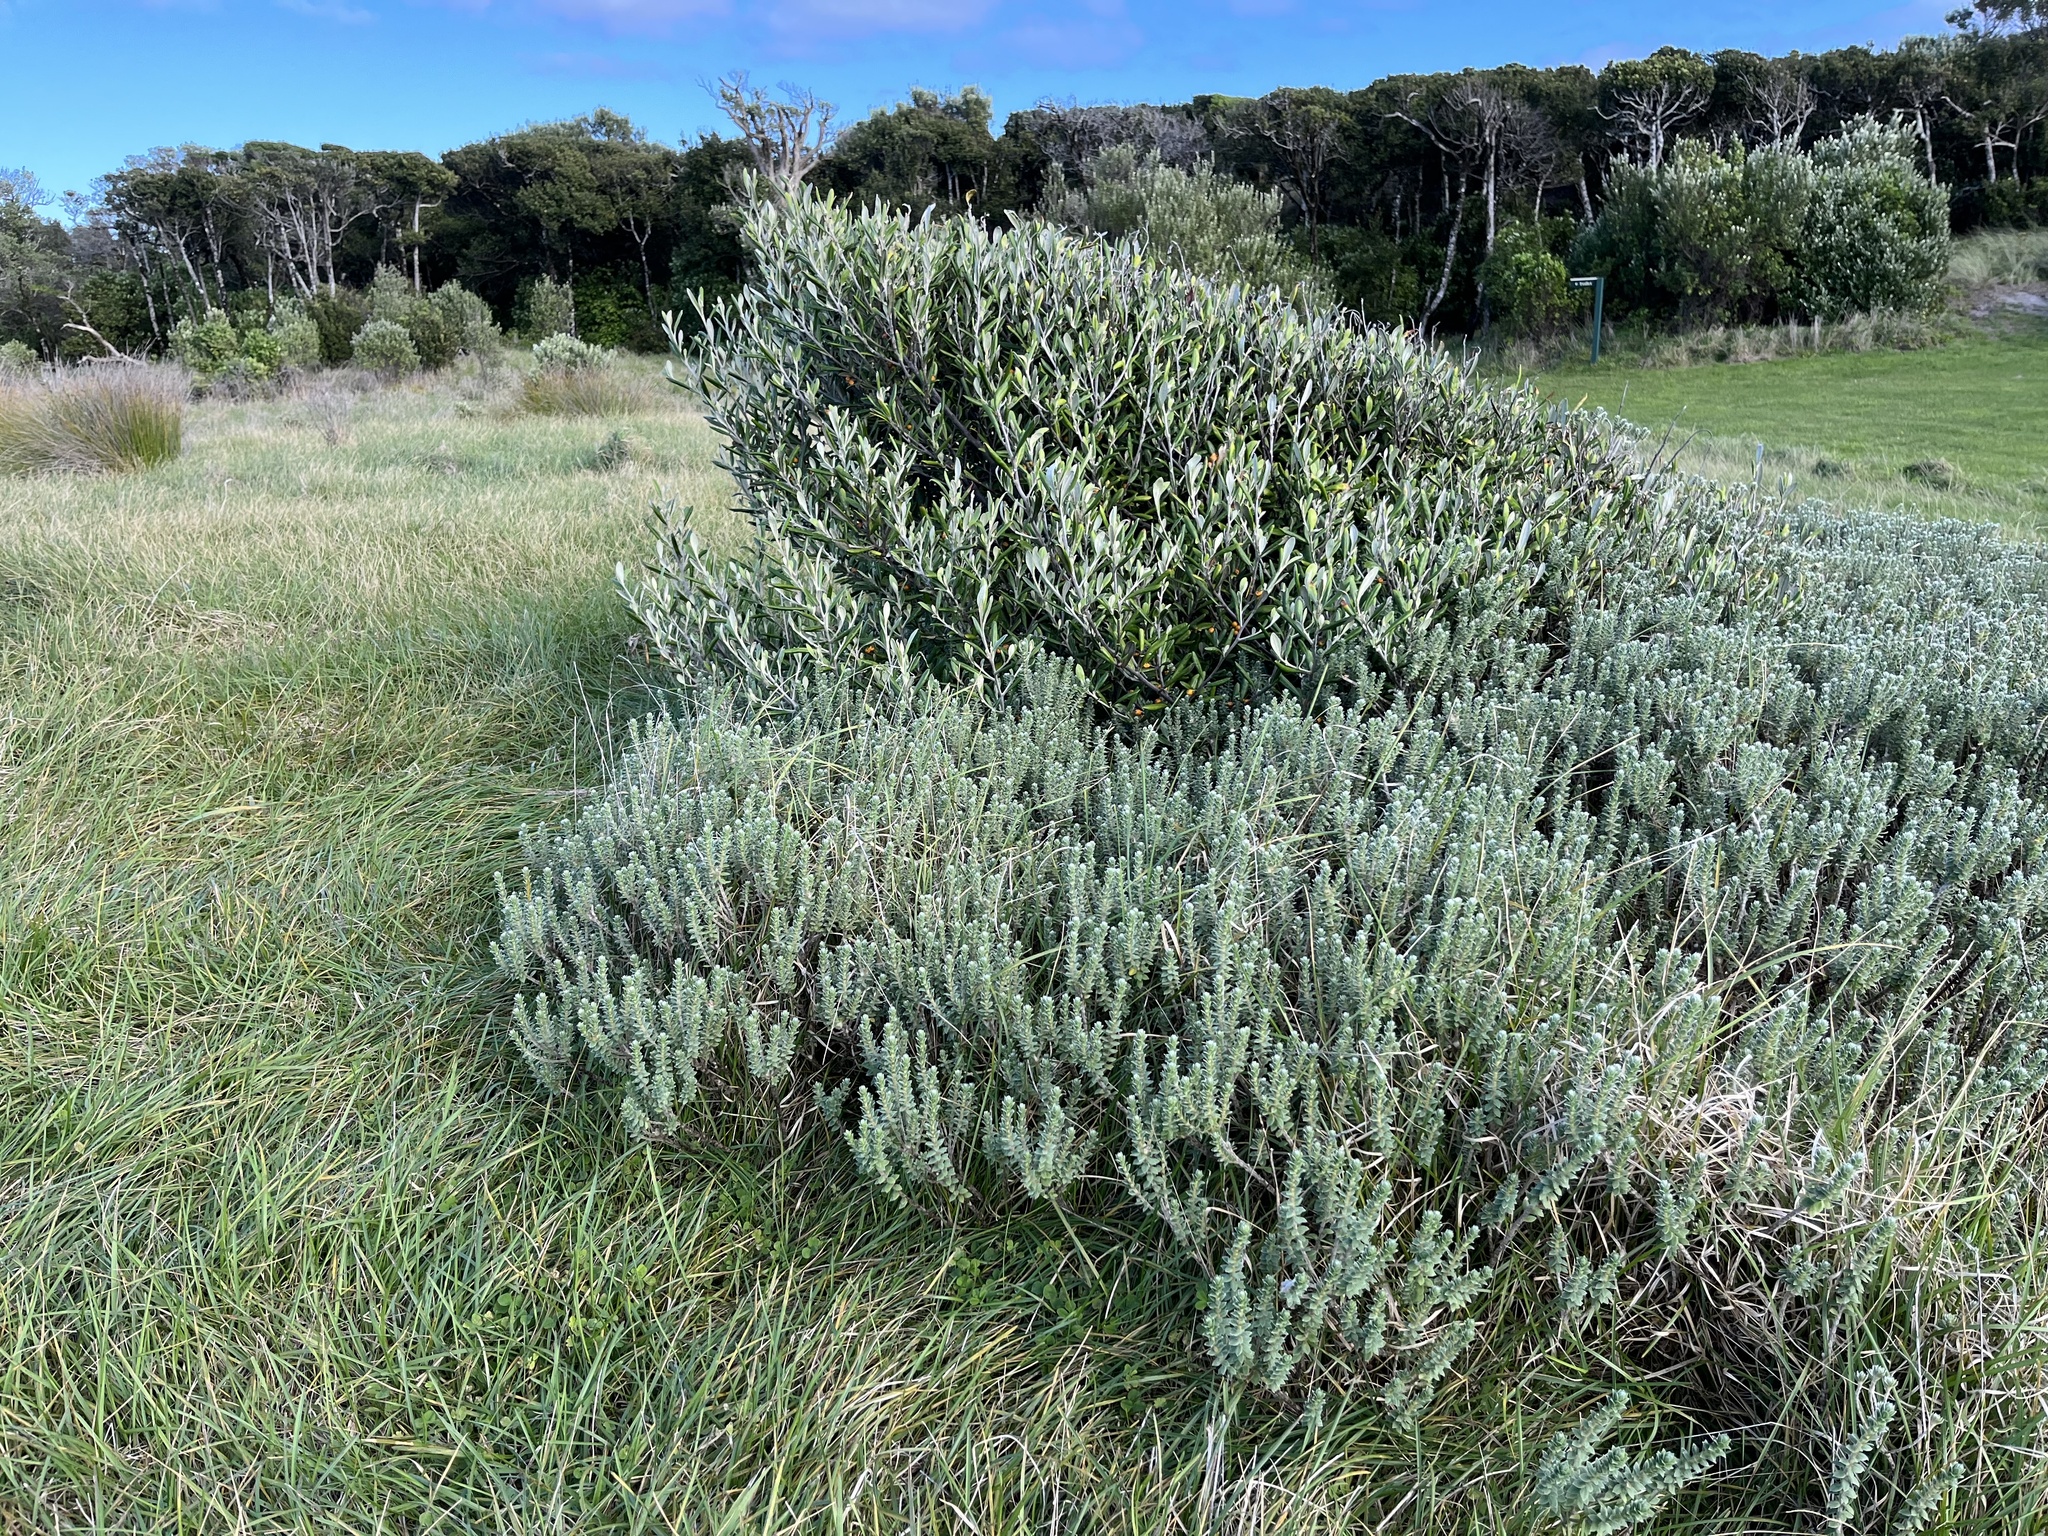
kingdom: Plantae
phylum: Tracheophyta
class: Magnoliopsida
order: Malvales
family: Thymelaeaceae
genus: Pimelea
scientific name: Pimelea villosa
